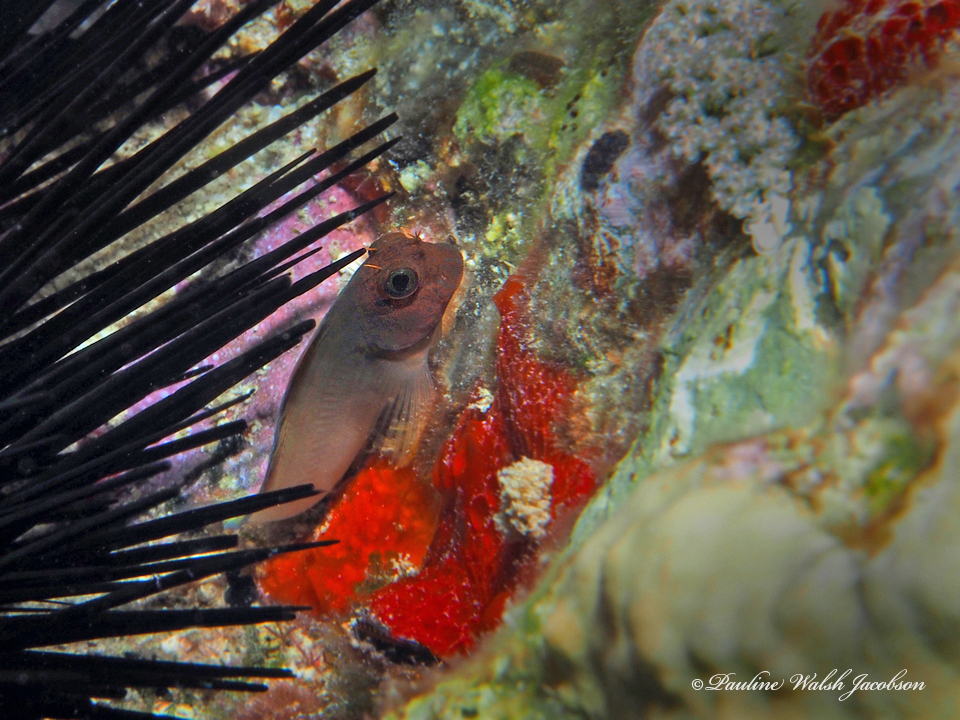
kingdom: Animalia
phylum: Chordata
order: Perciformes
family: Blenniidae
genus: Ophioblennius
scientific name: Ophioblennius macclurei
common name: Redlip blenny
